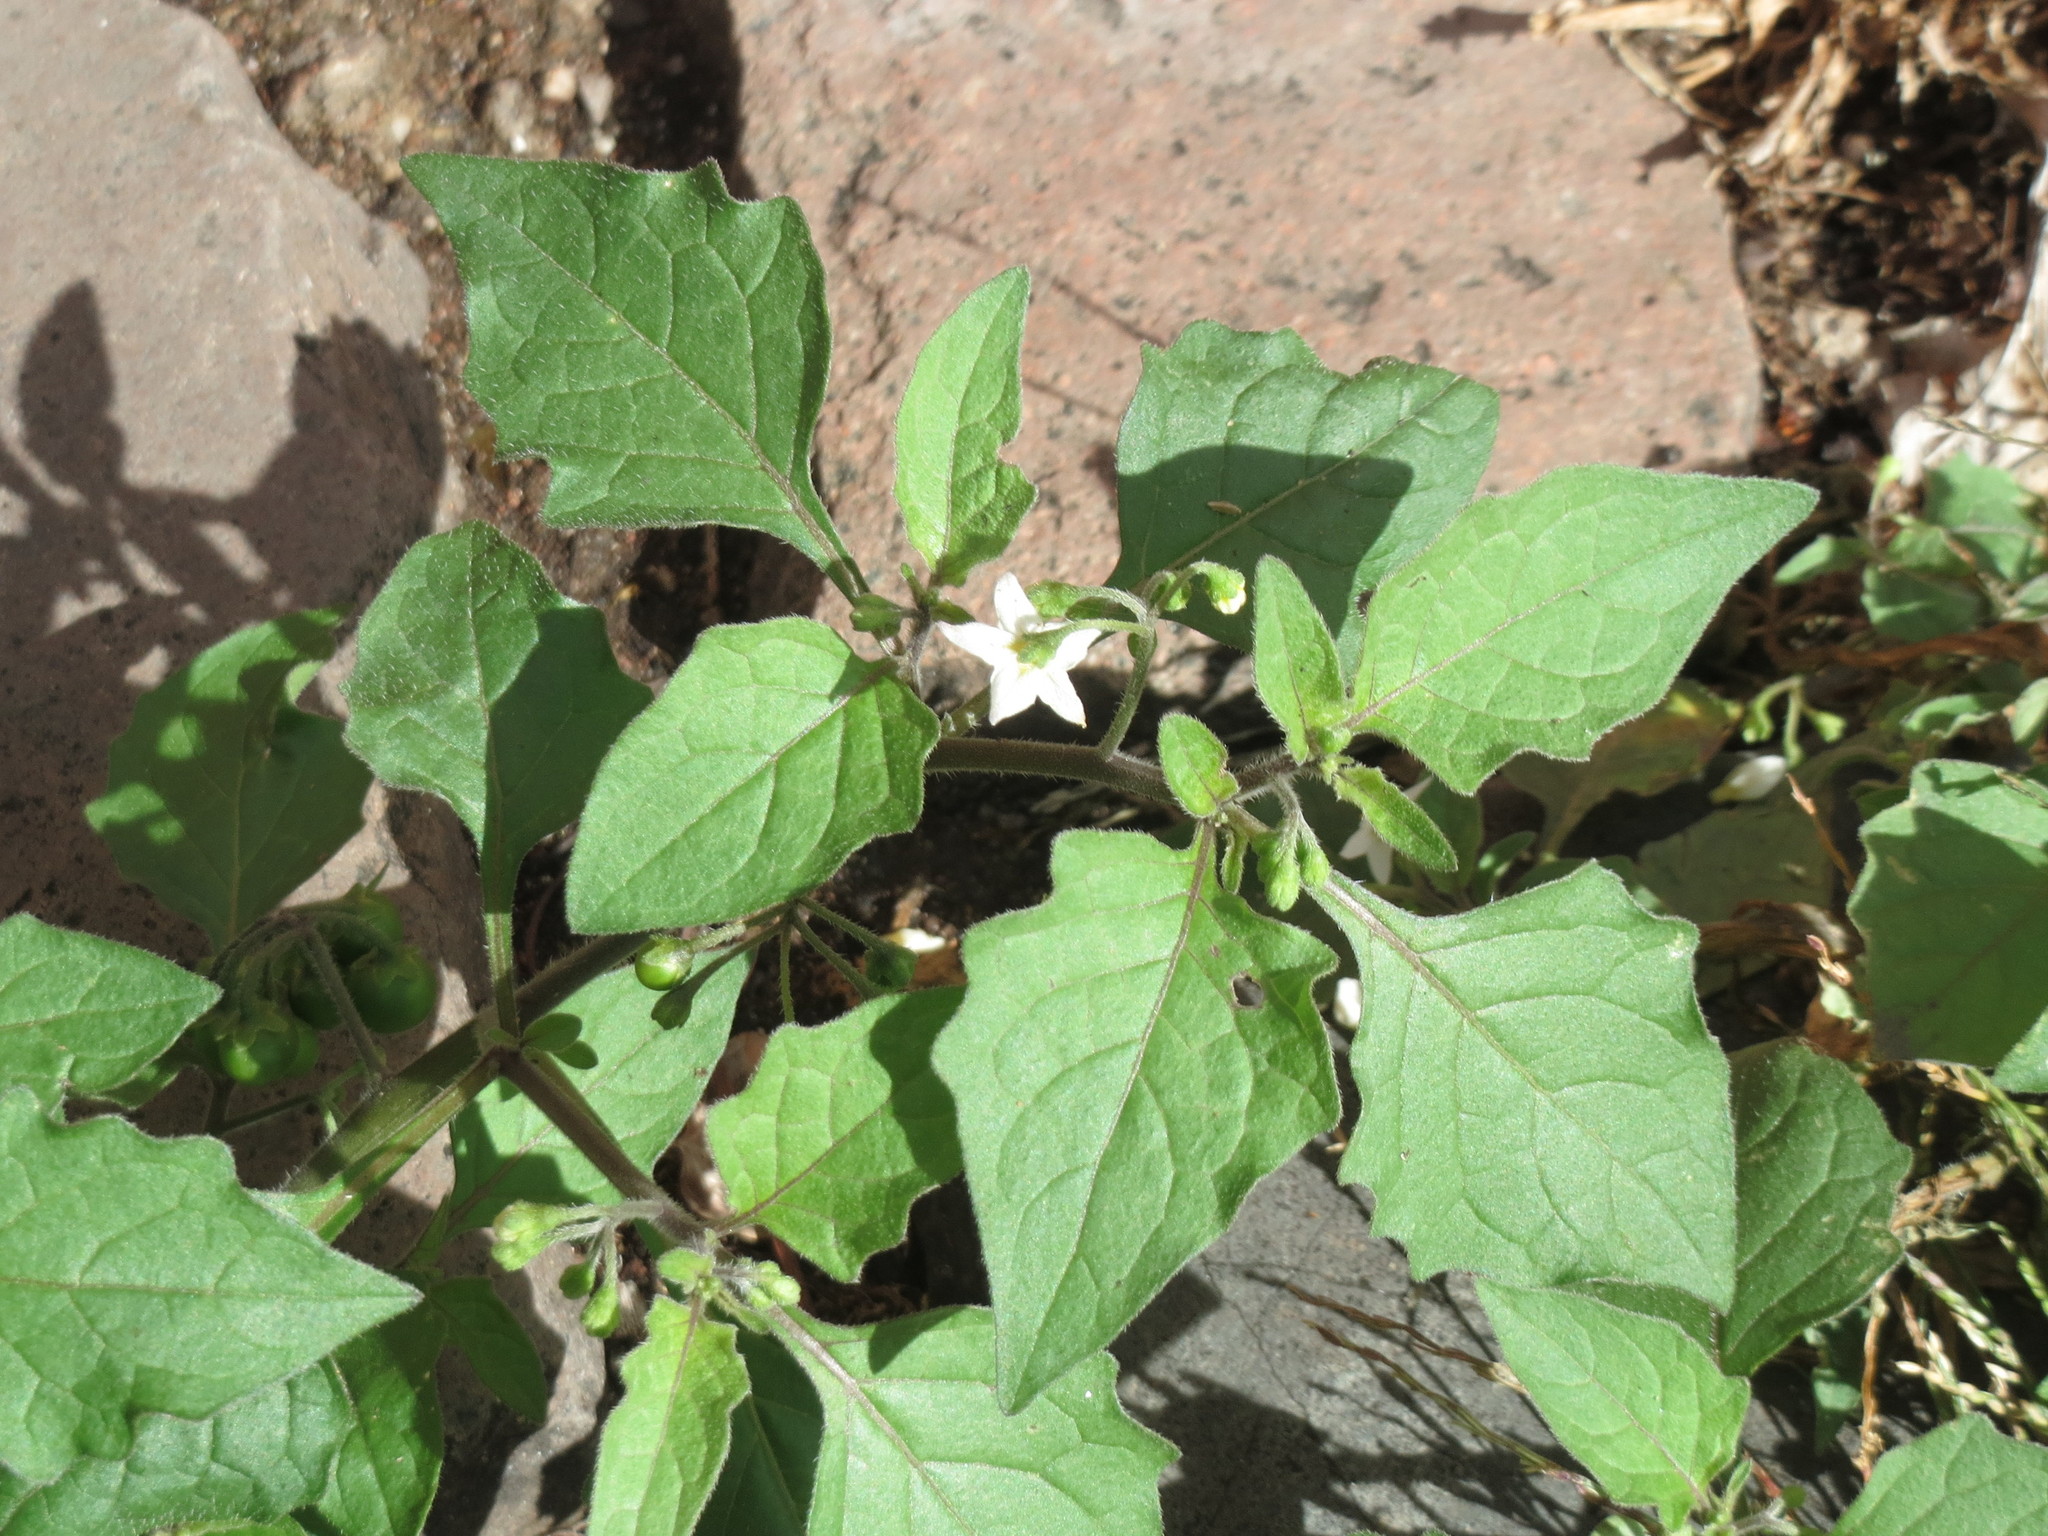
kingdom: Plantae
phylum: Tracheophyta
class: Magnoliopsida
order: Solanales
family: Solanaceae
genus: Solanum
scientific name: Solanum nigrum
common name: Black nightshade
